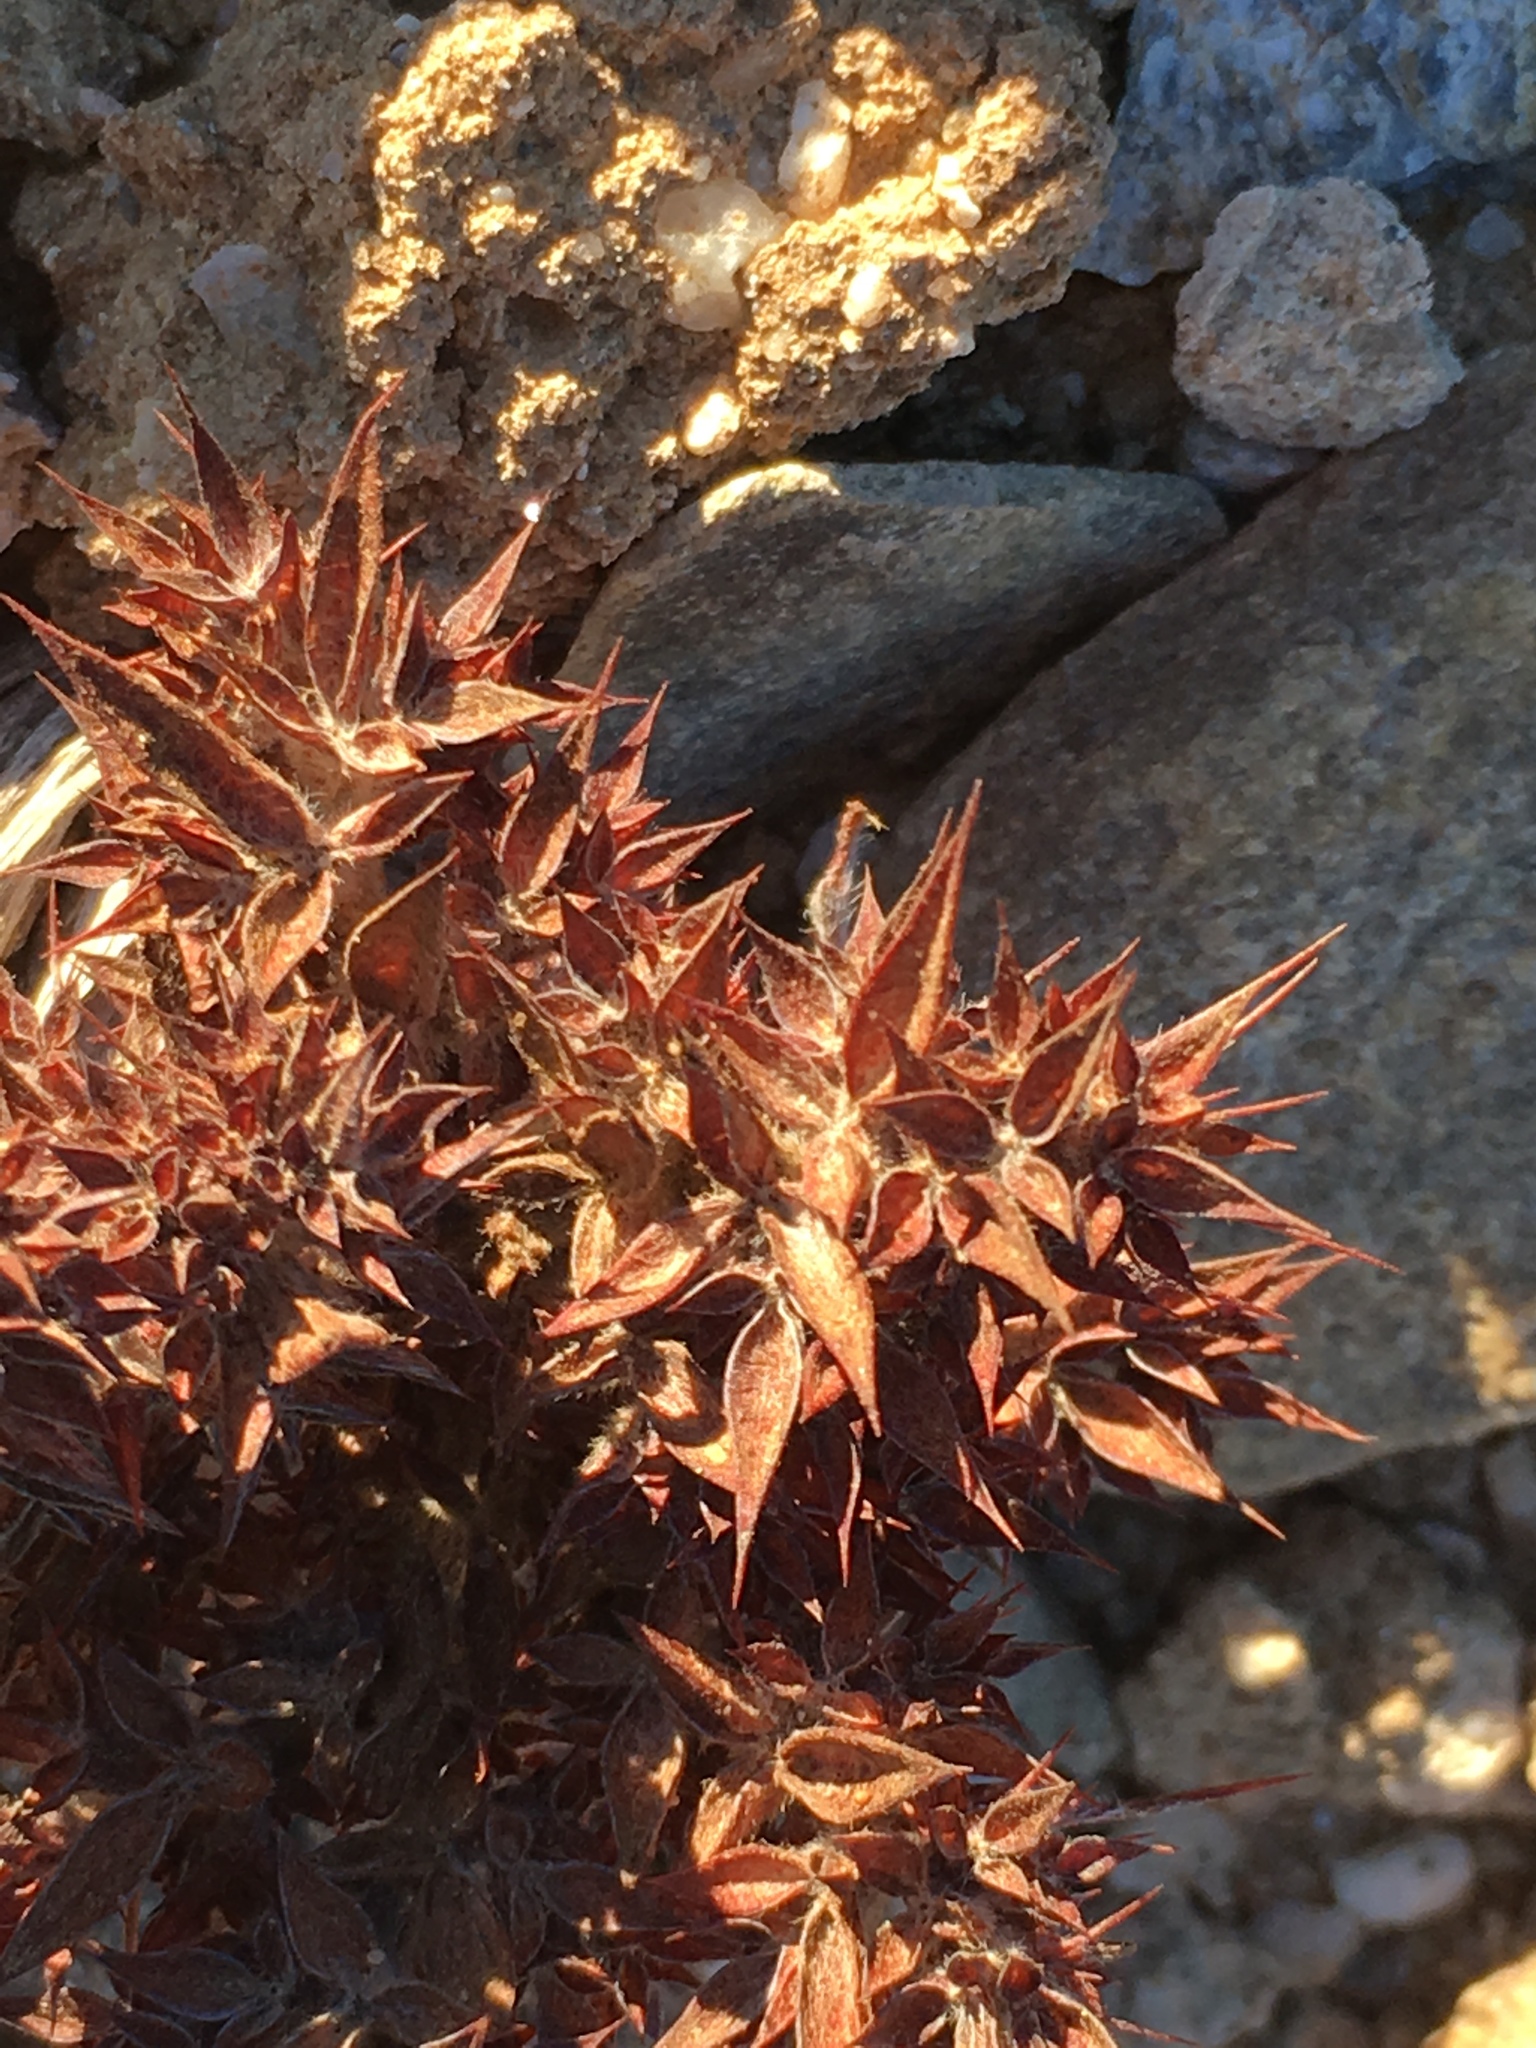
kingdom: Plantae
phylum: Tracheophyta
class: Magnoliopsida
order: Caryophyllales
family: Polygonaceae
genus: Chorizanthe
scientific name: Chorizanthe rigida
